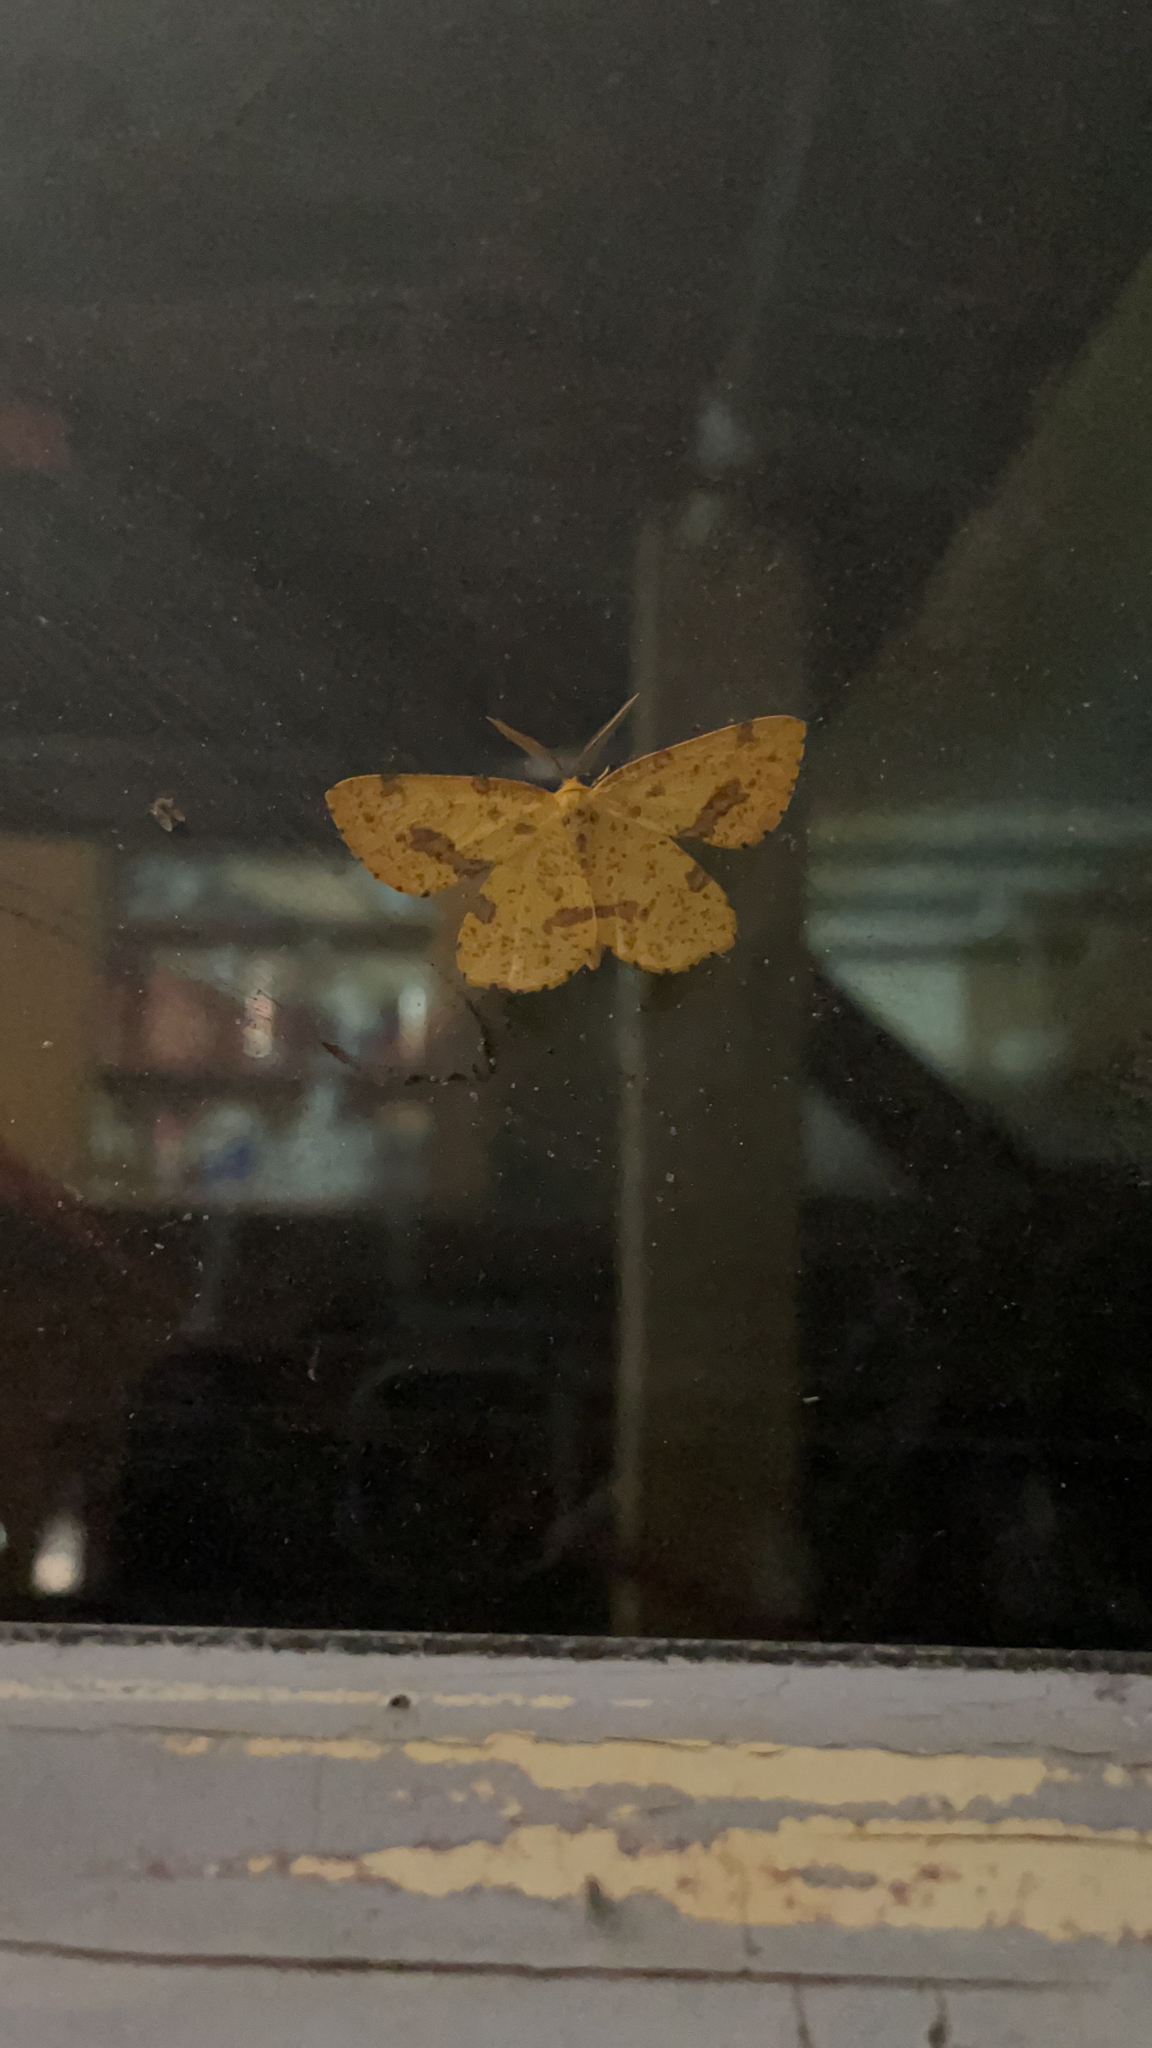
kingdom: Animalia
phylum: Arthropoda
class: Insecta
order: Lepidoptera
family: Geometridae
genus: Xanthotype
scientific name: Xanthotype
